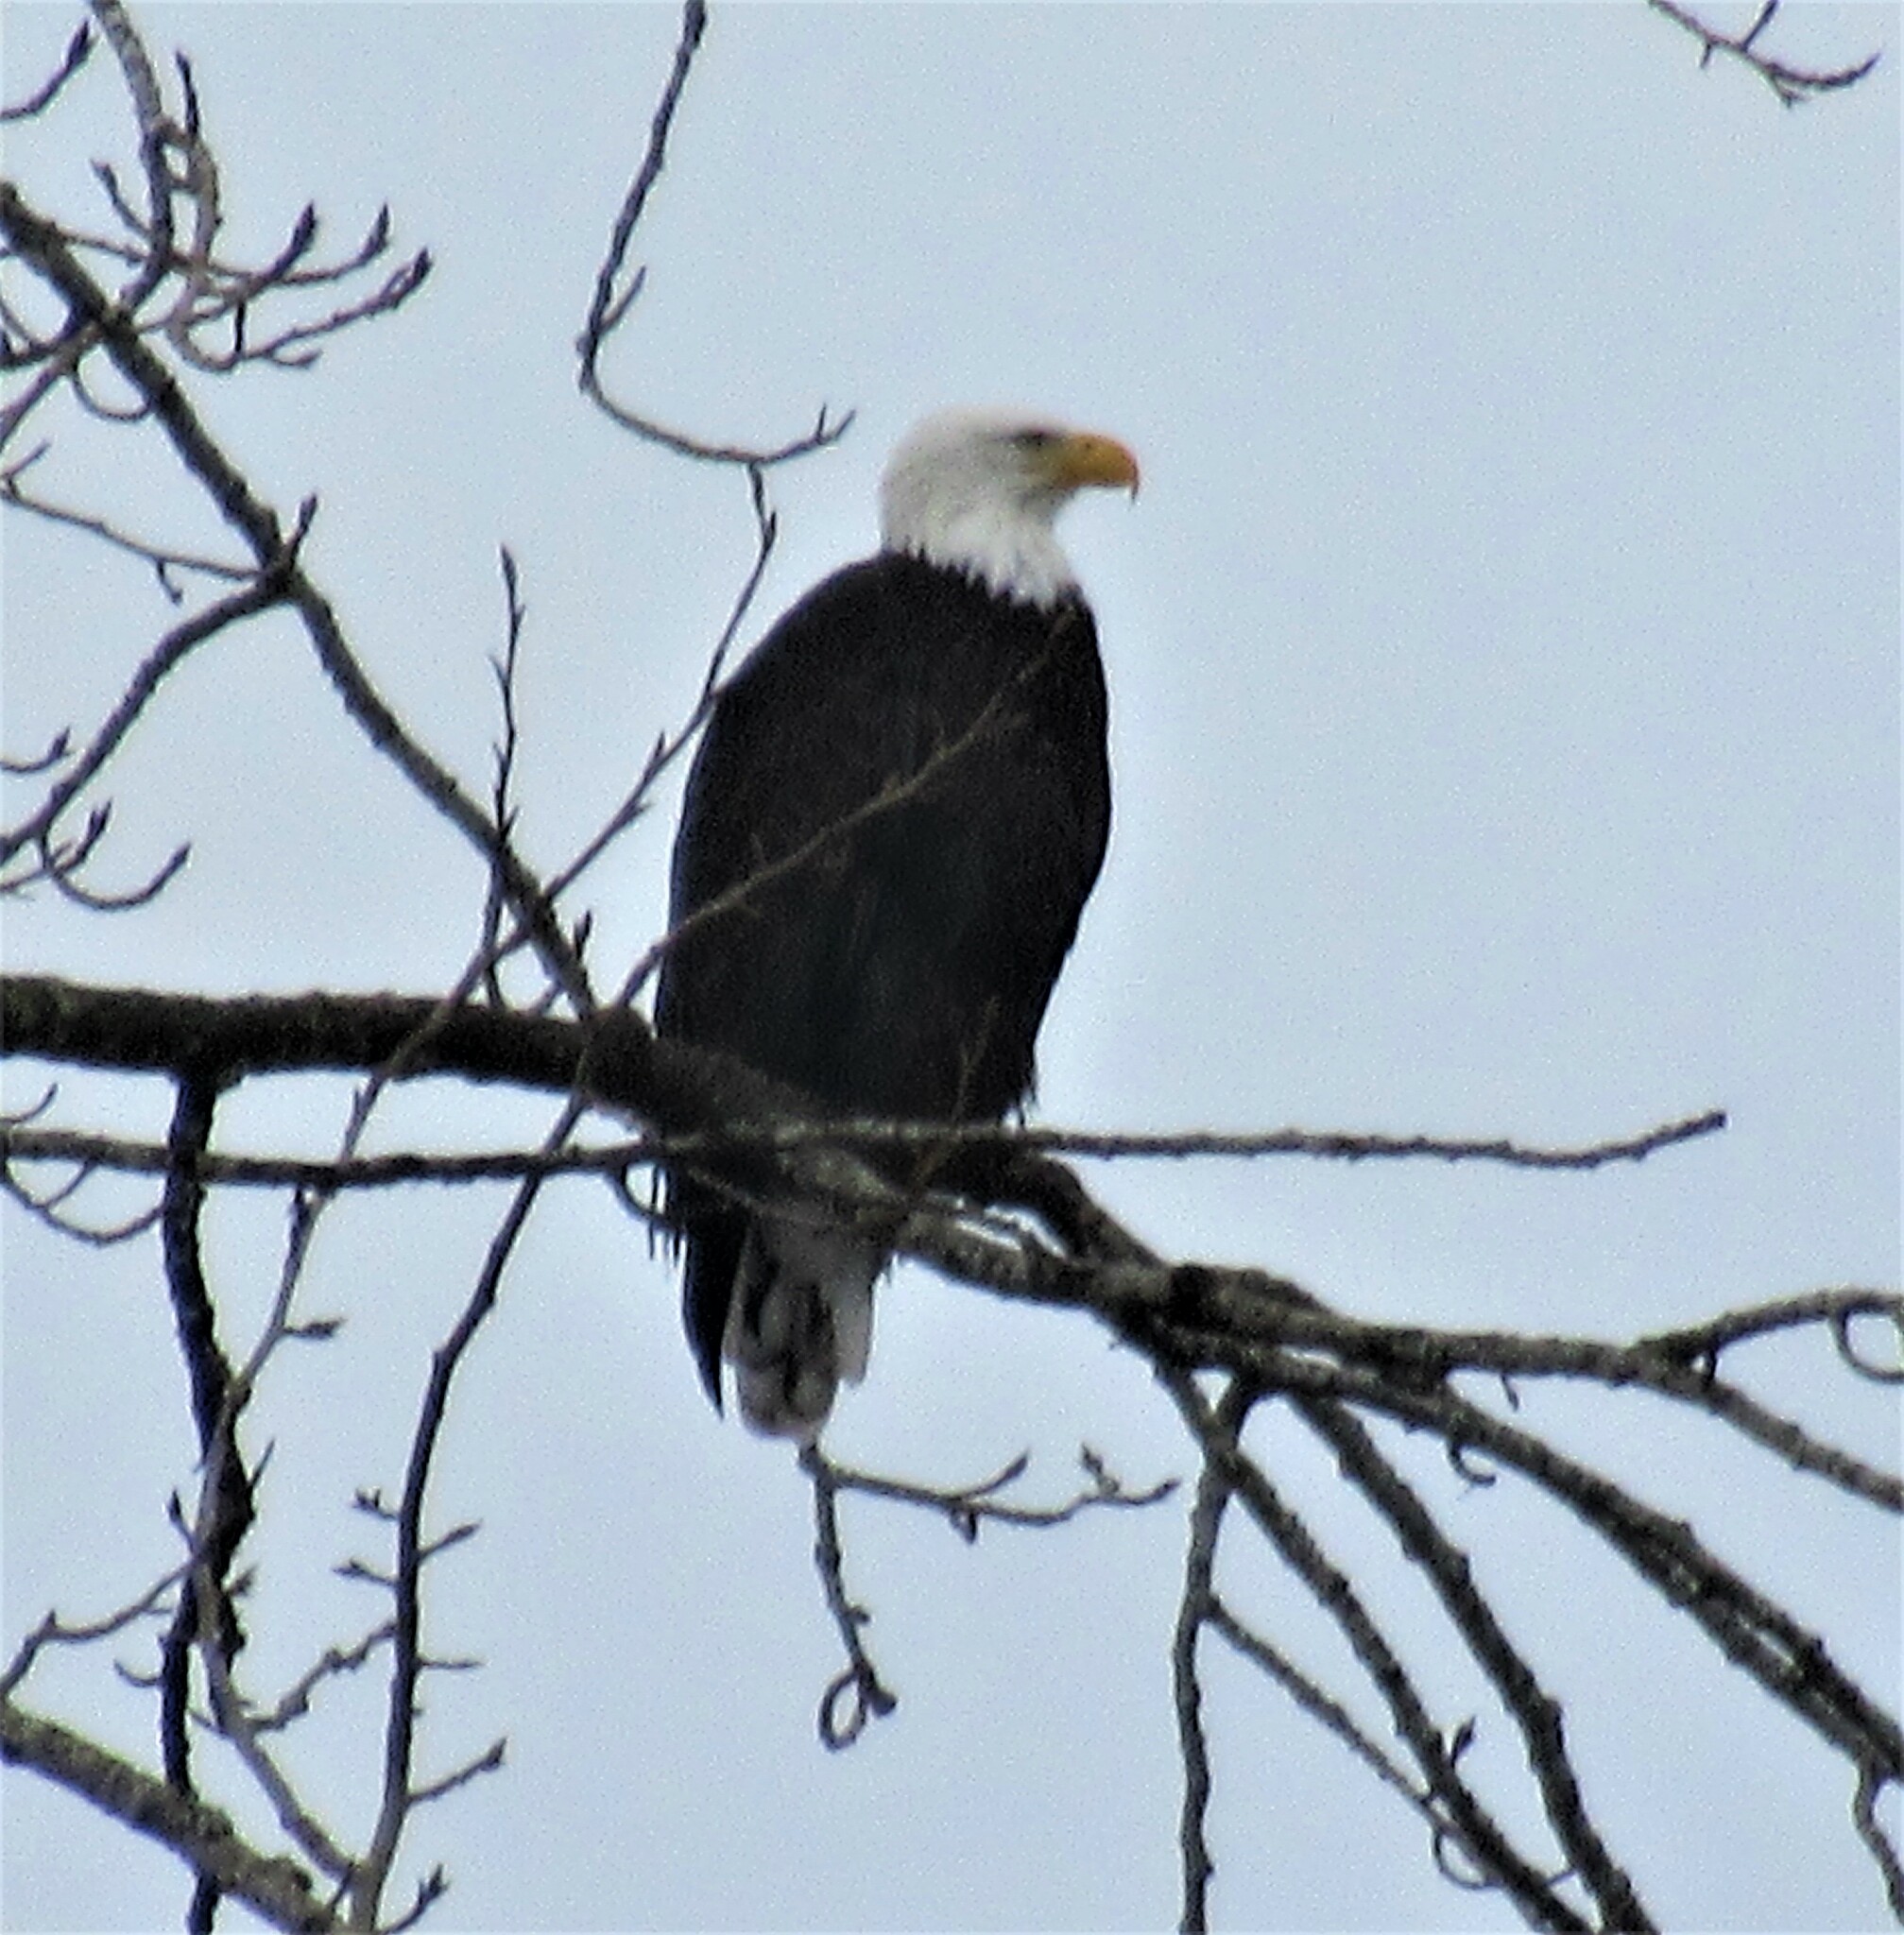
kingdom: Animalia
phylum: Chordata
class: Aves
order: Accipitriformes
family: Accipitridae
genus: Haliaeetus
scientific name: Haliaeetus leucocephalus
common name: Bald eagle
